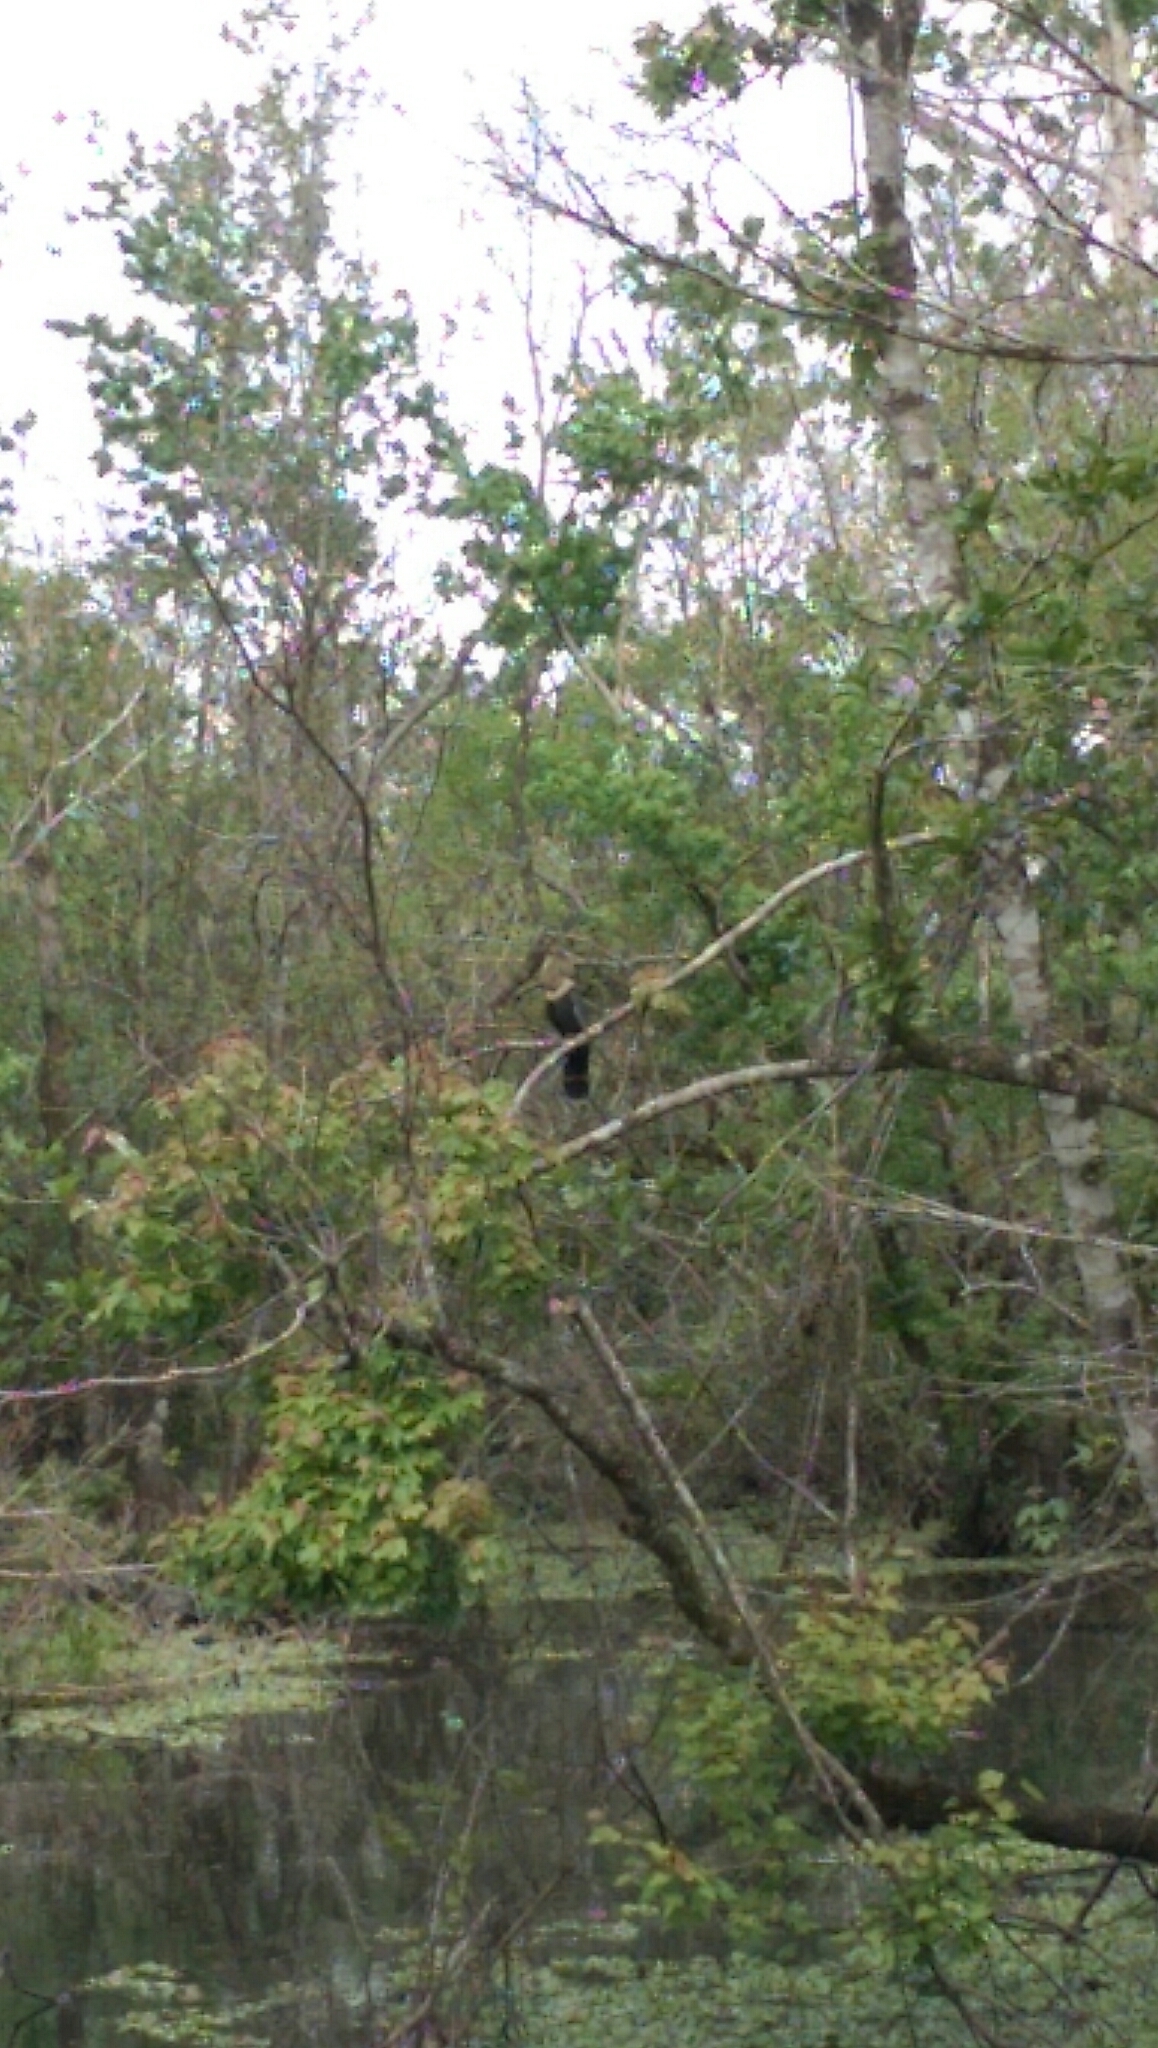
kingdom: Animalia
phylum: Chordata
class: Aves
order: Suliformes
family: Anhingidae
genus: Anhinga
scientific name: Anhinga anhinga
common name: Anhinga
